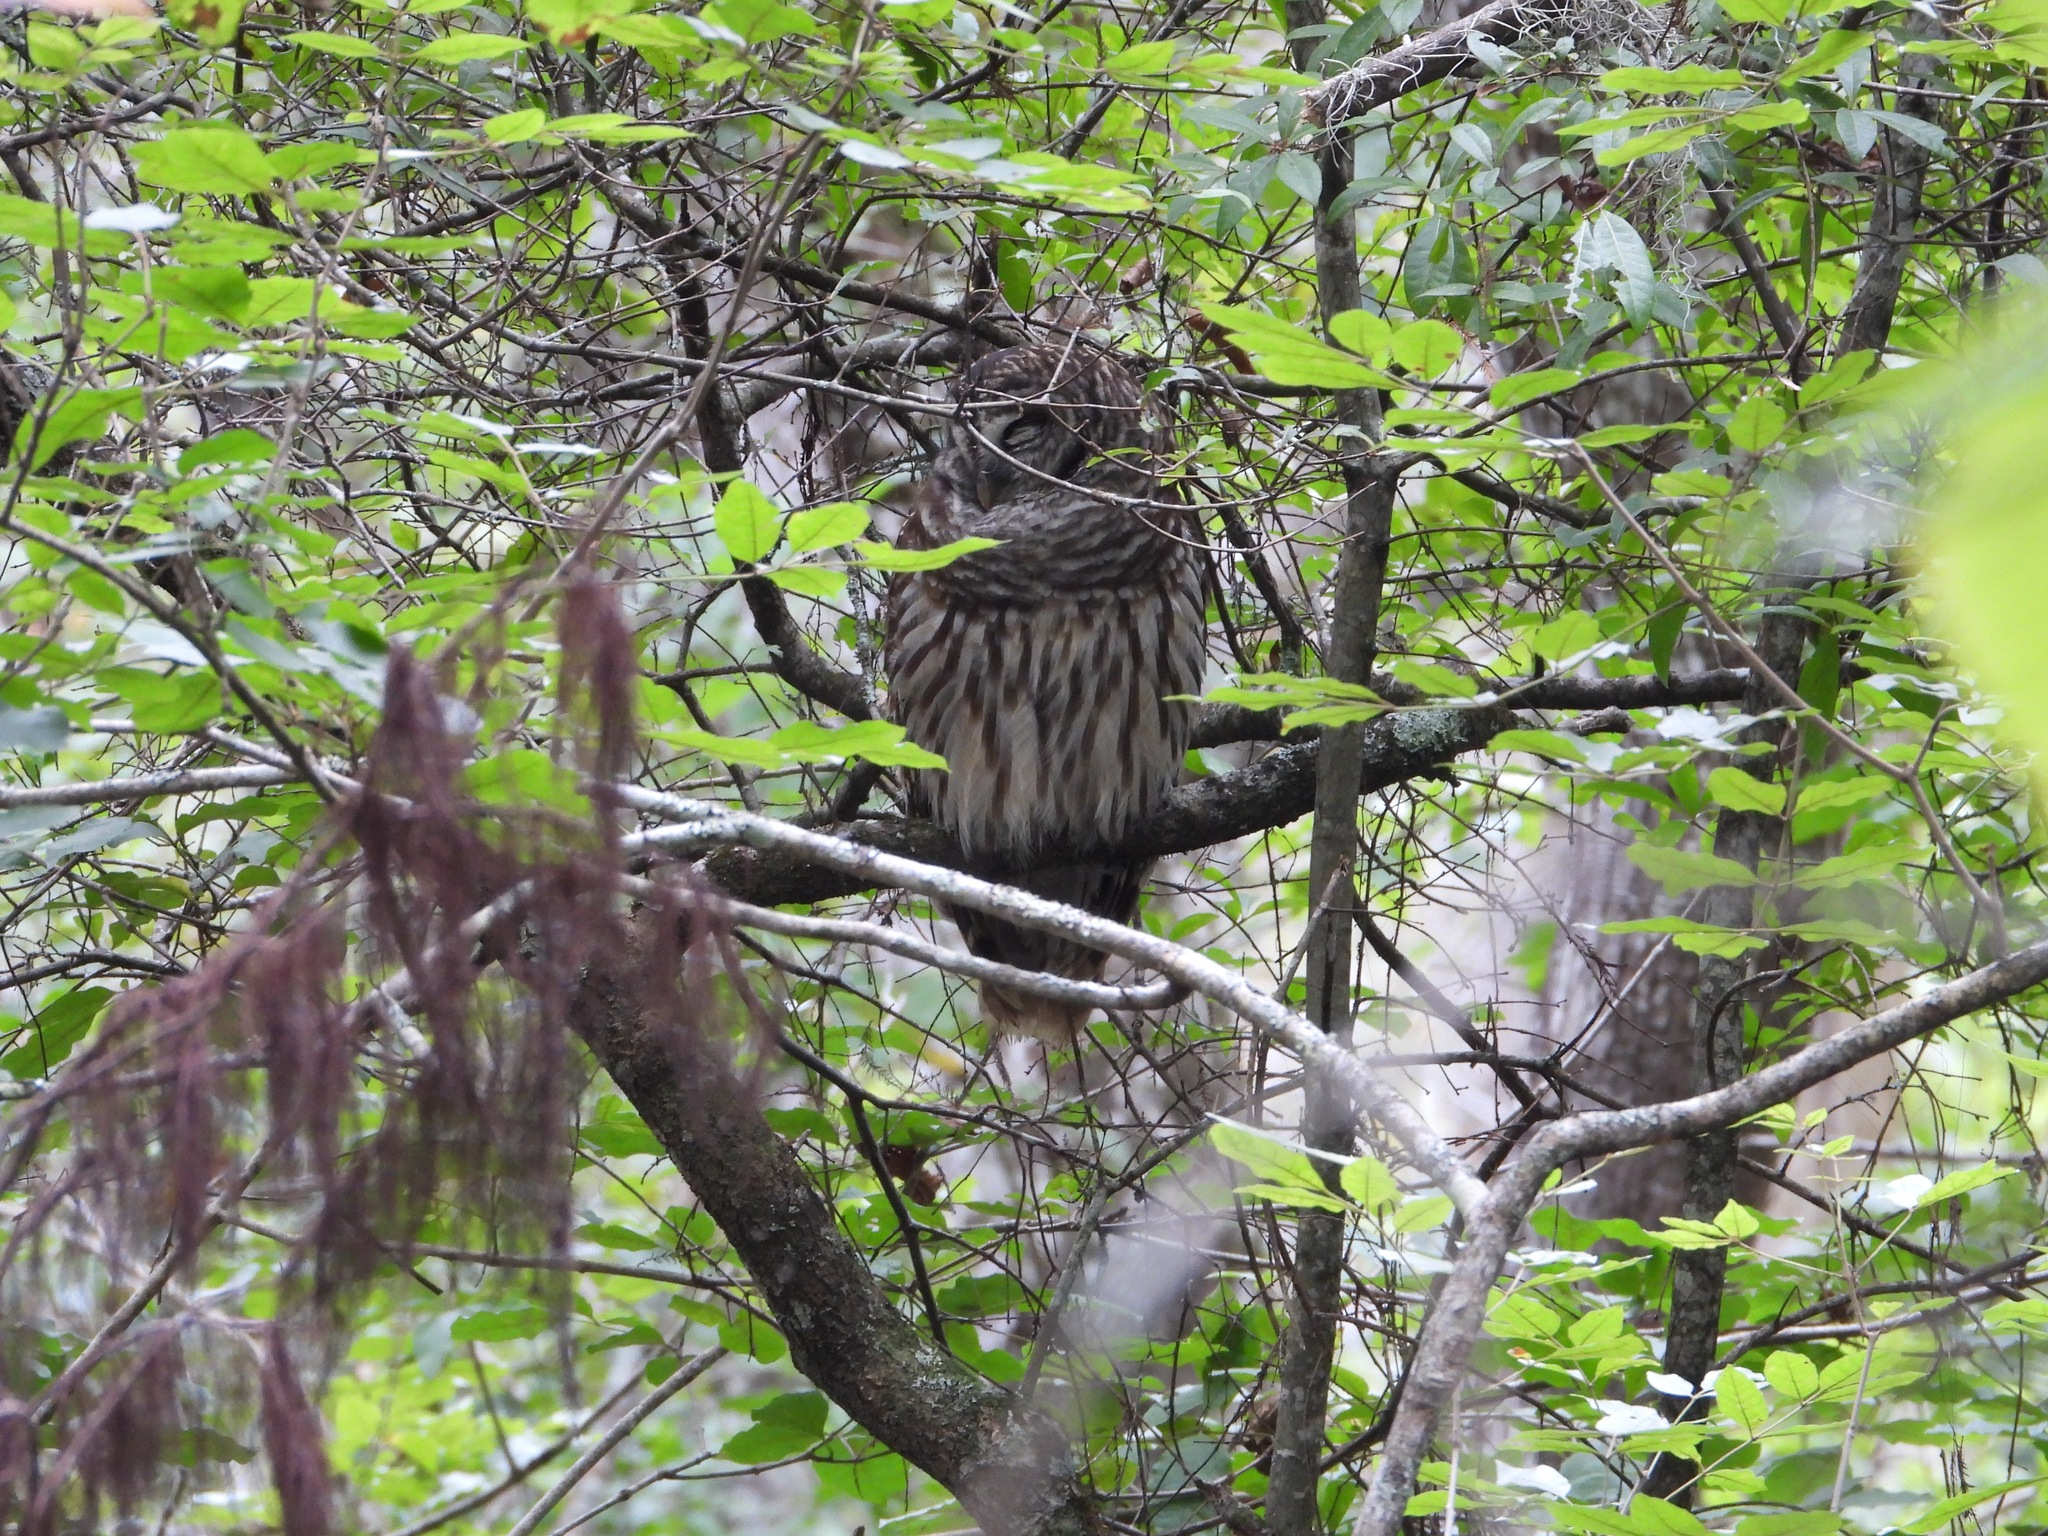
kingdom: Animalia
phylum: Chordata
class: Aves
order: Strigiformes
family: Strigidae
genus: Strix
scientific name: Strix varia
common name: Barred owl
